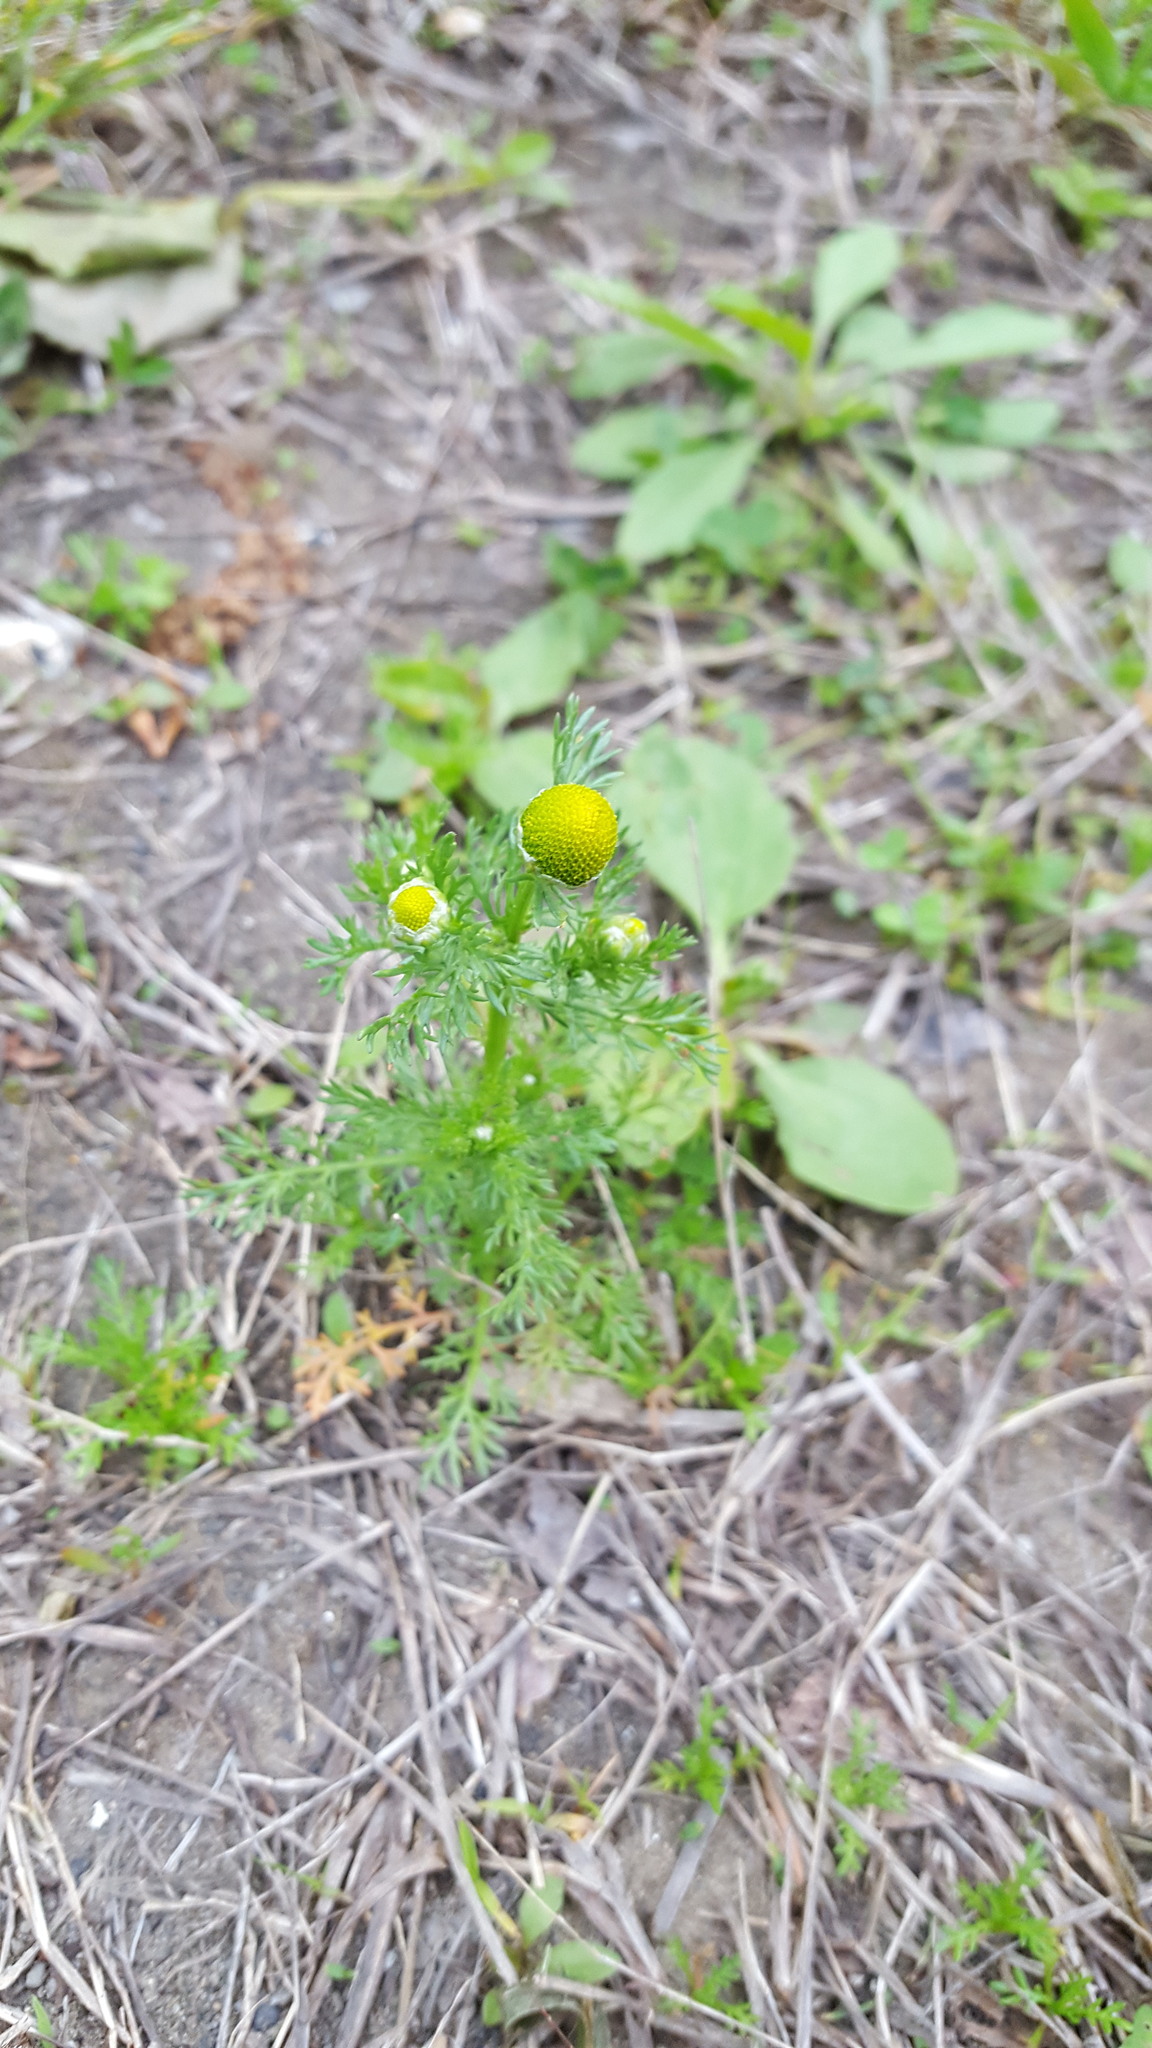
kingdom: Plantae
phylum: Tracheophyta
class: Magnoliopsida
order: Asterales
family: Asteraceae
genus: Matricaria
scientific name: Matricaria discoidea
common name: Disc mayweed
